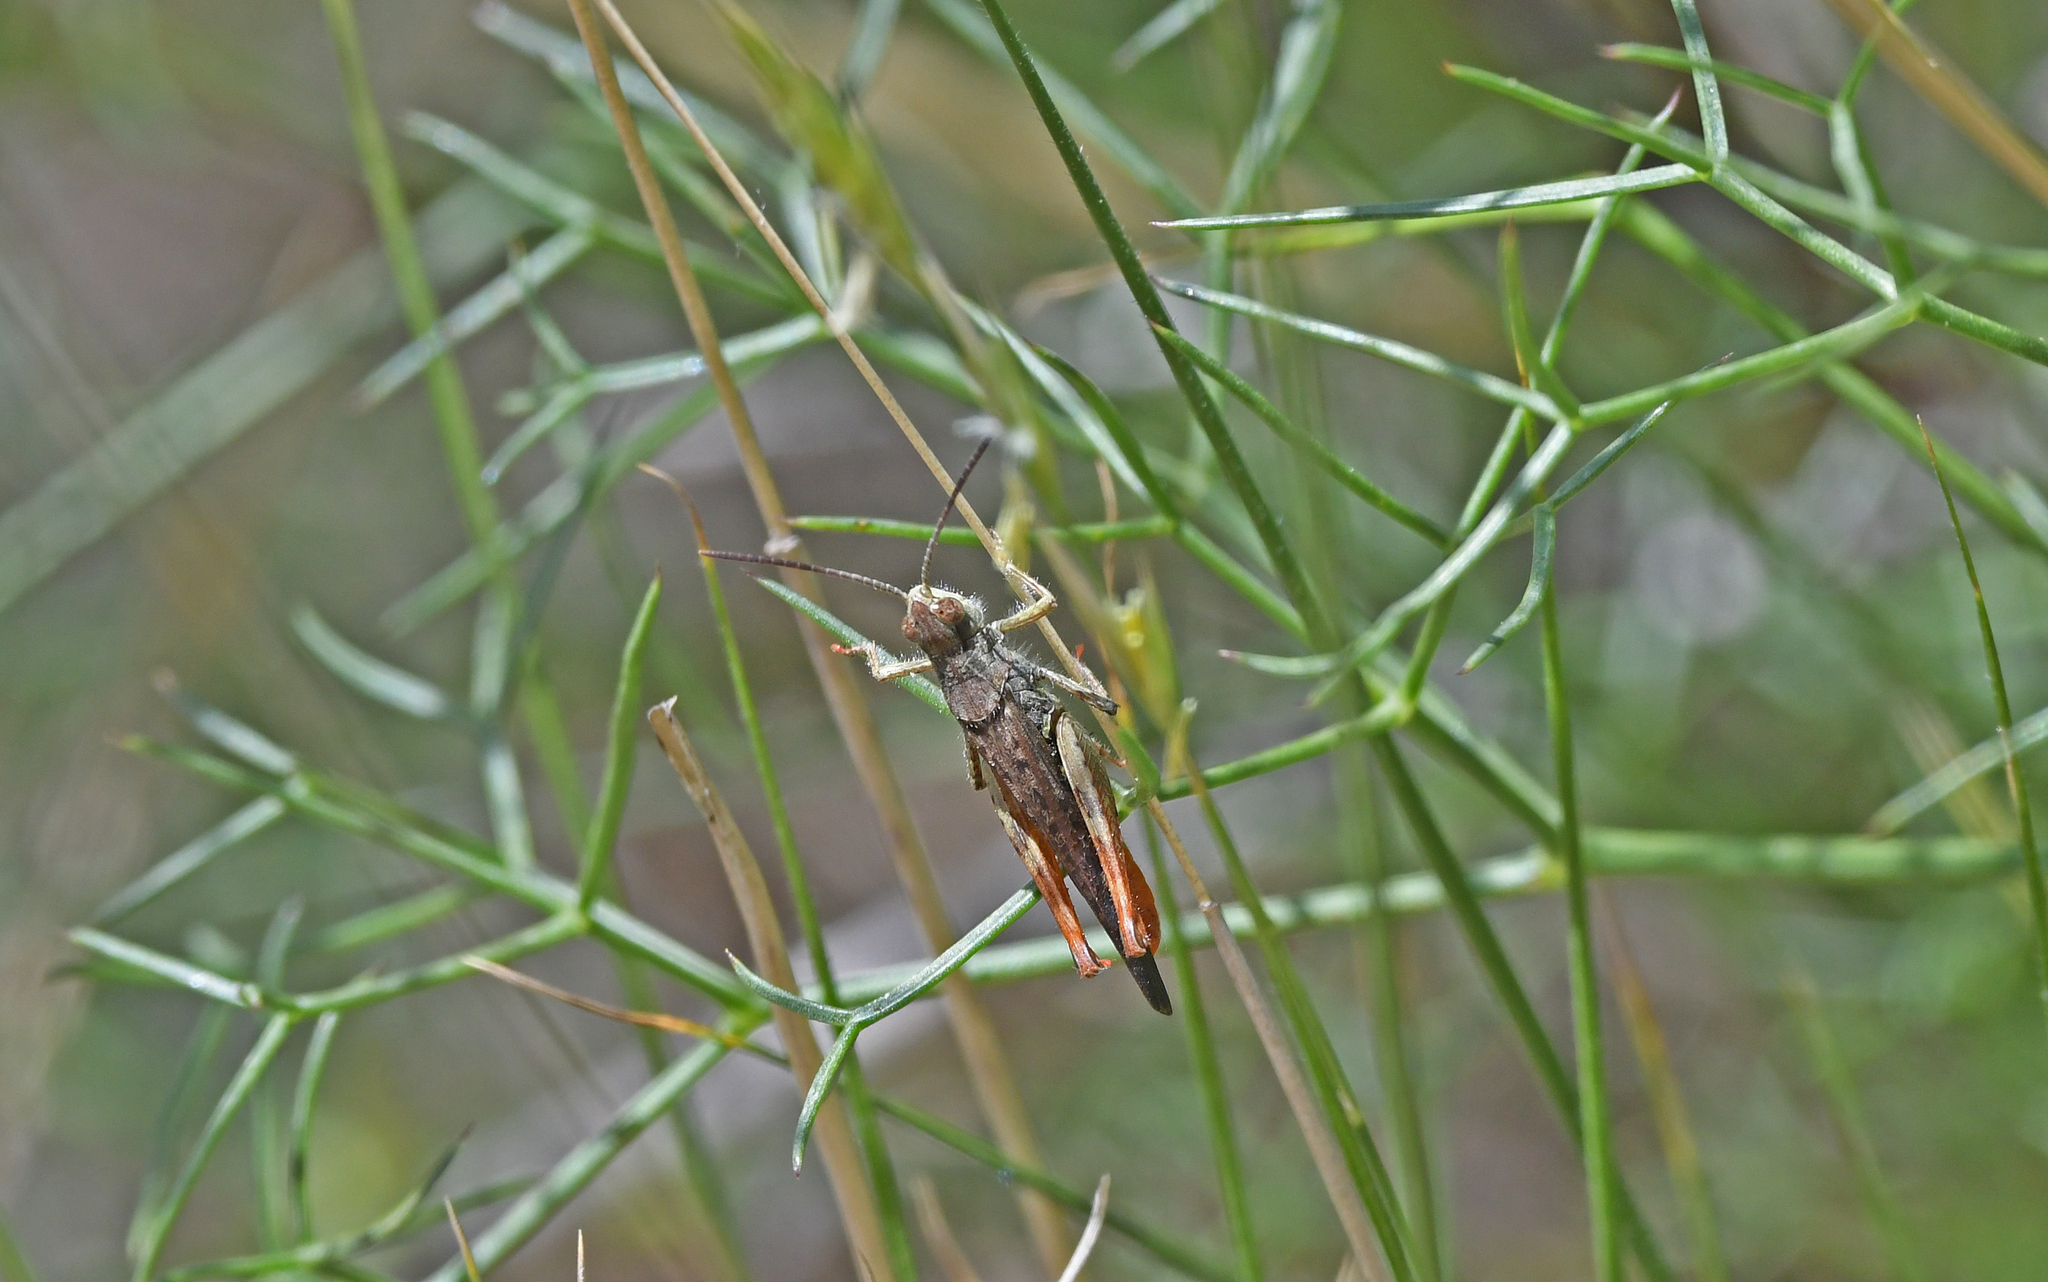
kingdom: Animalia
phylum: Arthropoda
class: Insecta
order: Orthoptera
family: Acrididae
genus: Chorthippus
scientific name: Chorthippus brunneus
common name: Field grasshopper
